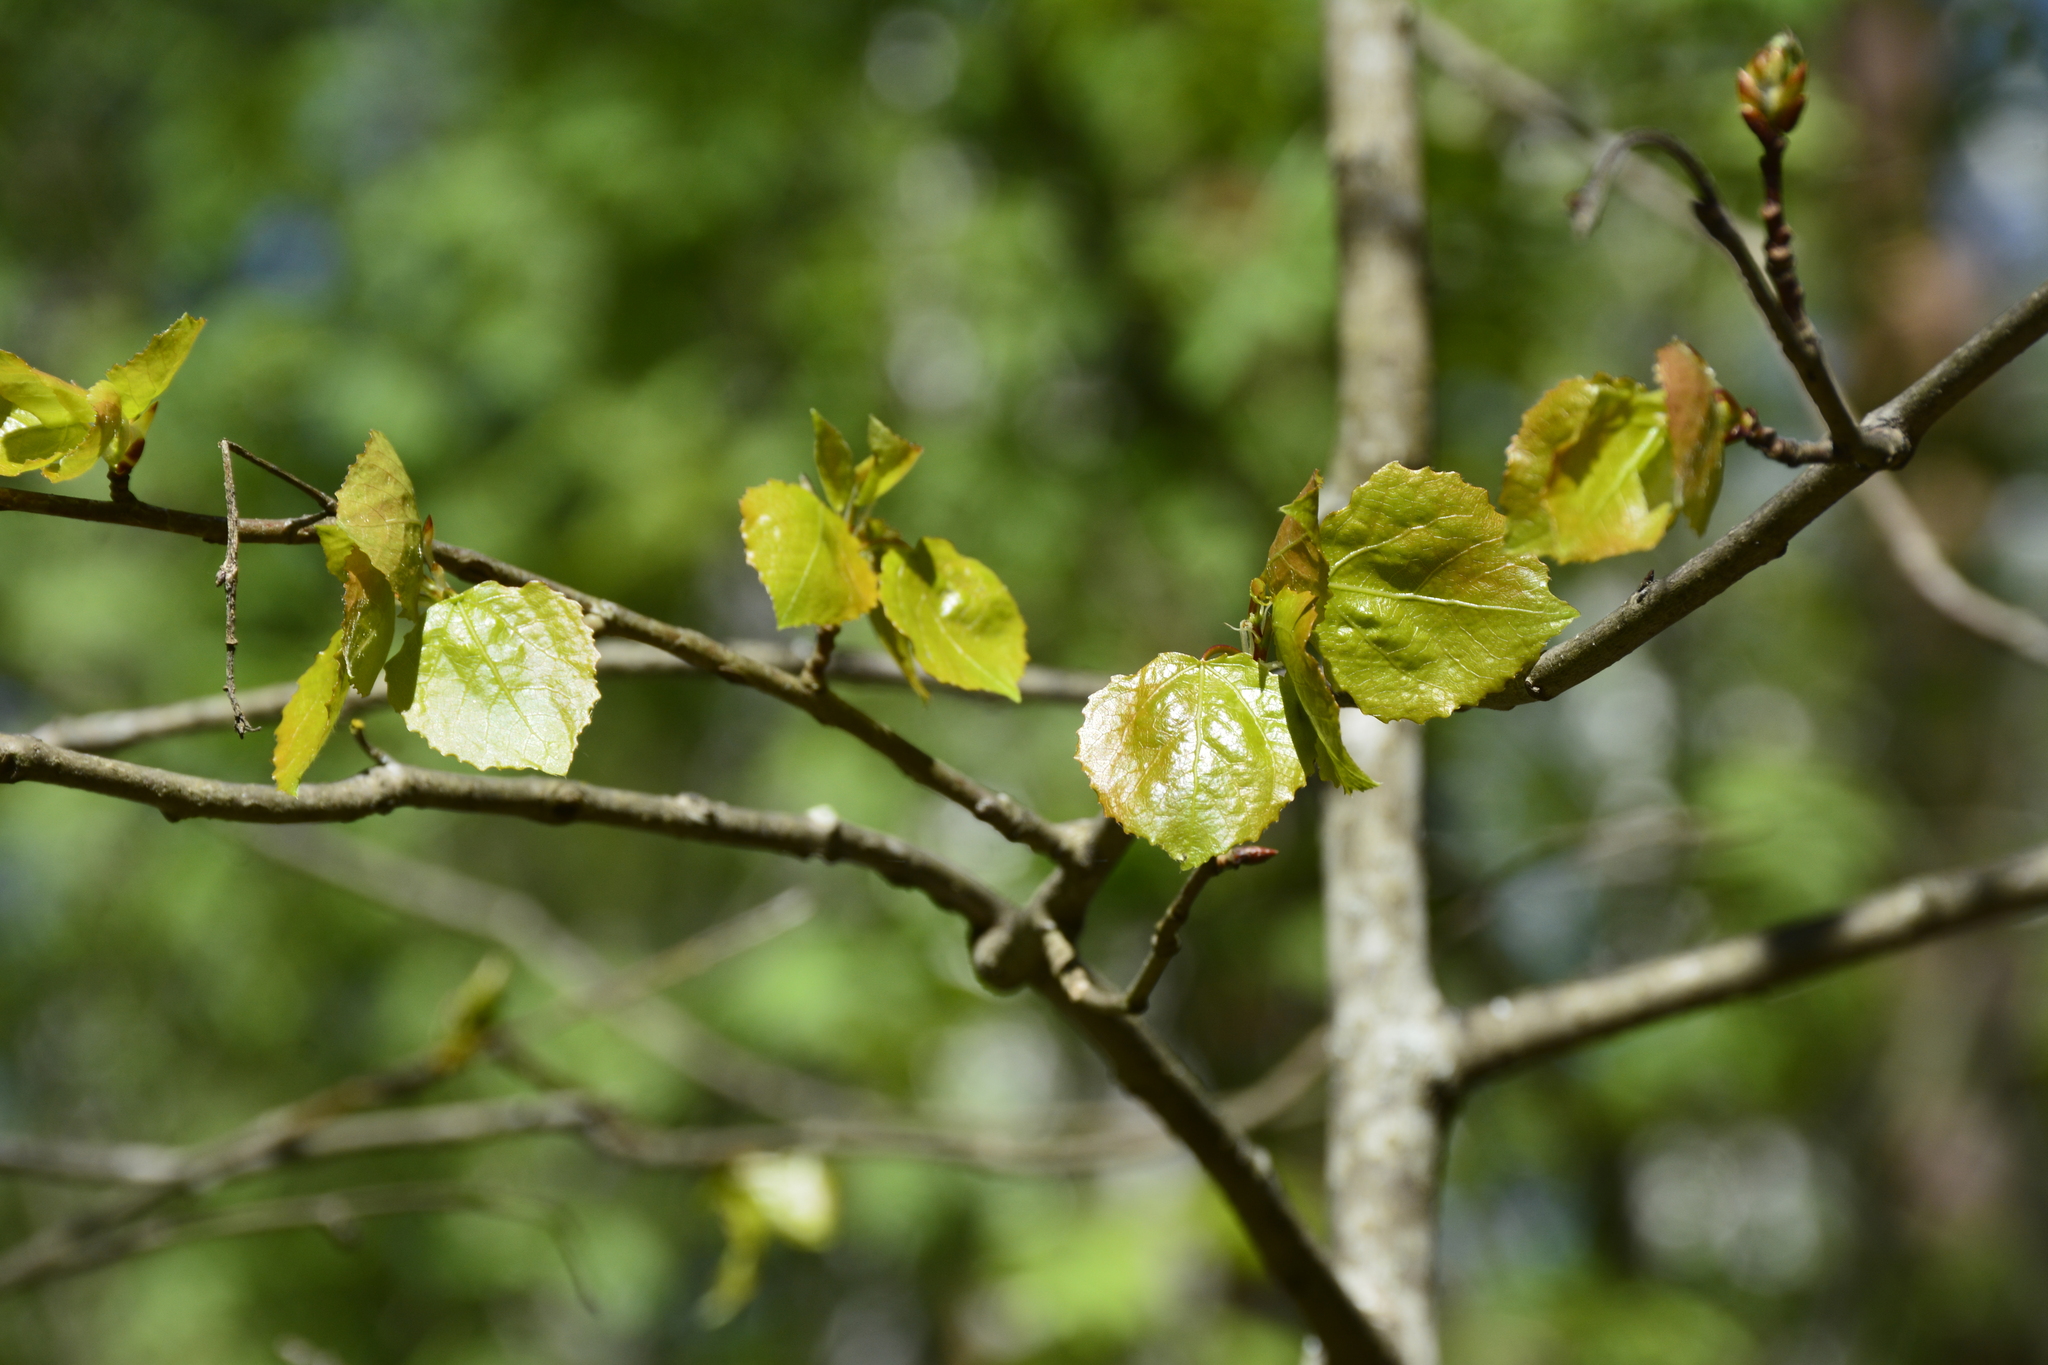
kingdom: Plantae
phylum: Tracheophyta
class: Magnoliopsida
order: Malpighiales
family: Salicaceae
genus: Populus
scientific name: Populus tremula
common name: European aspen
